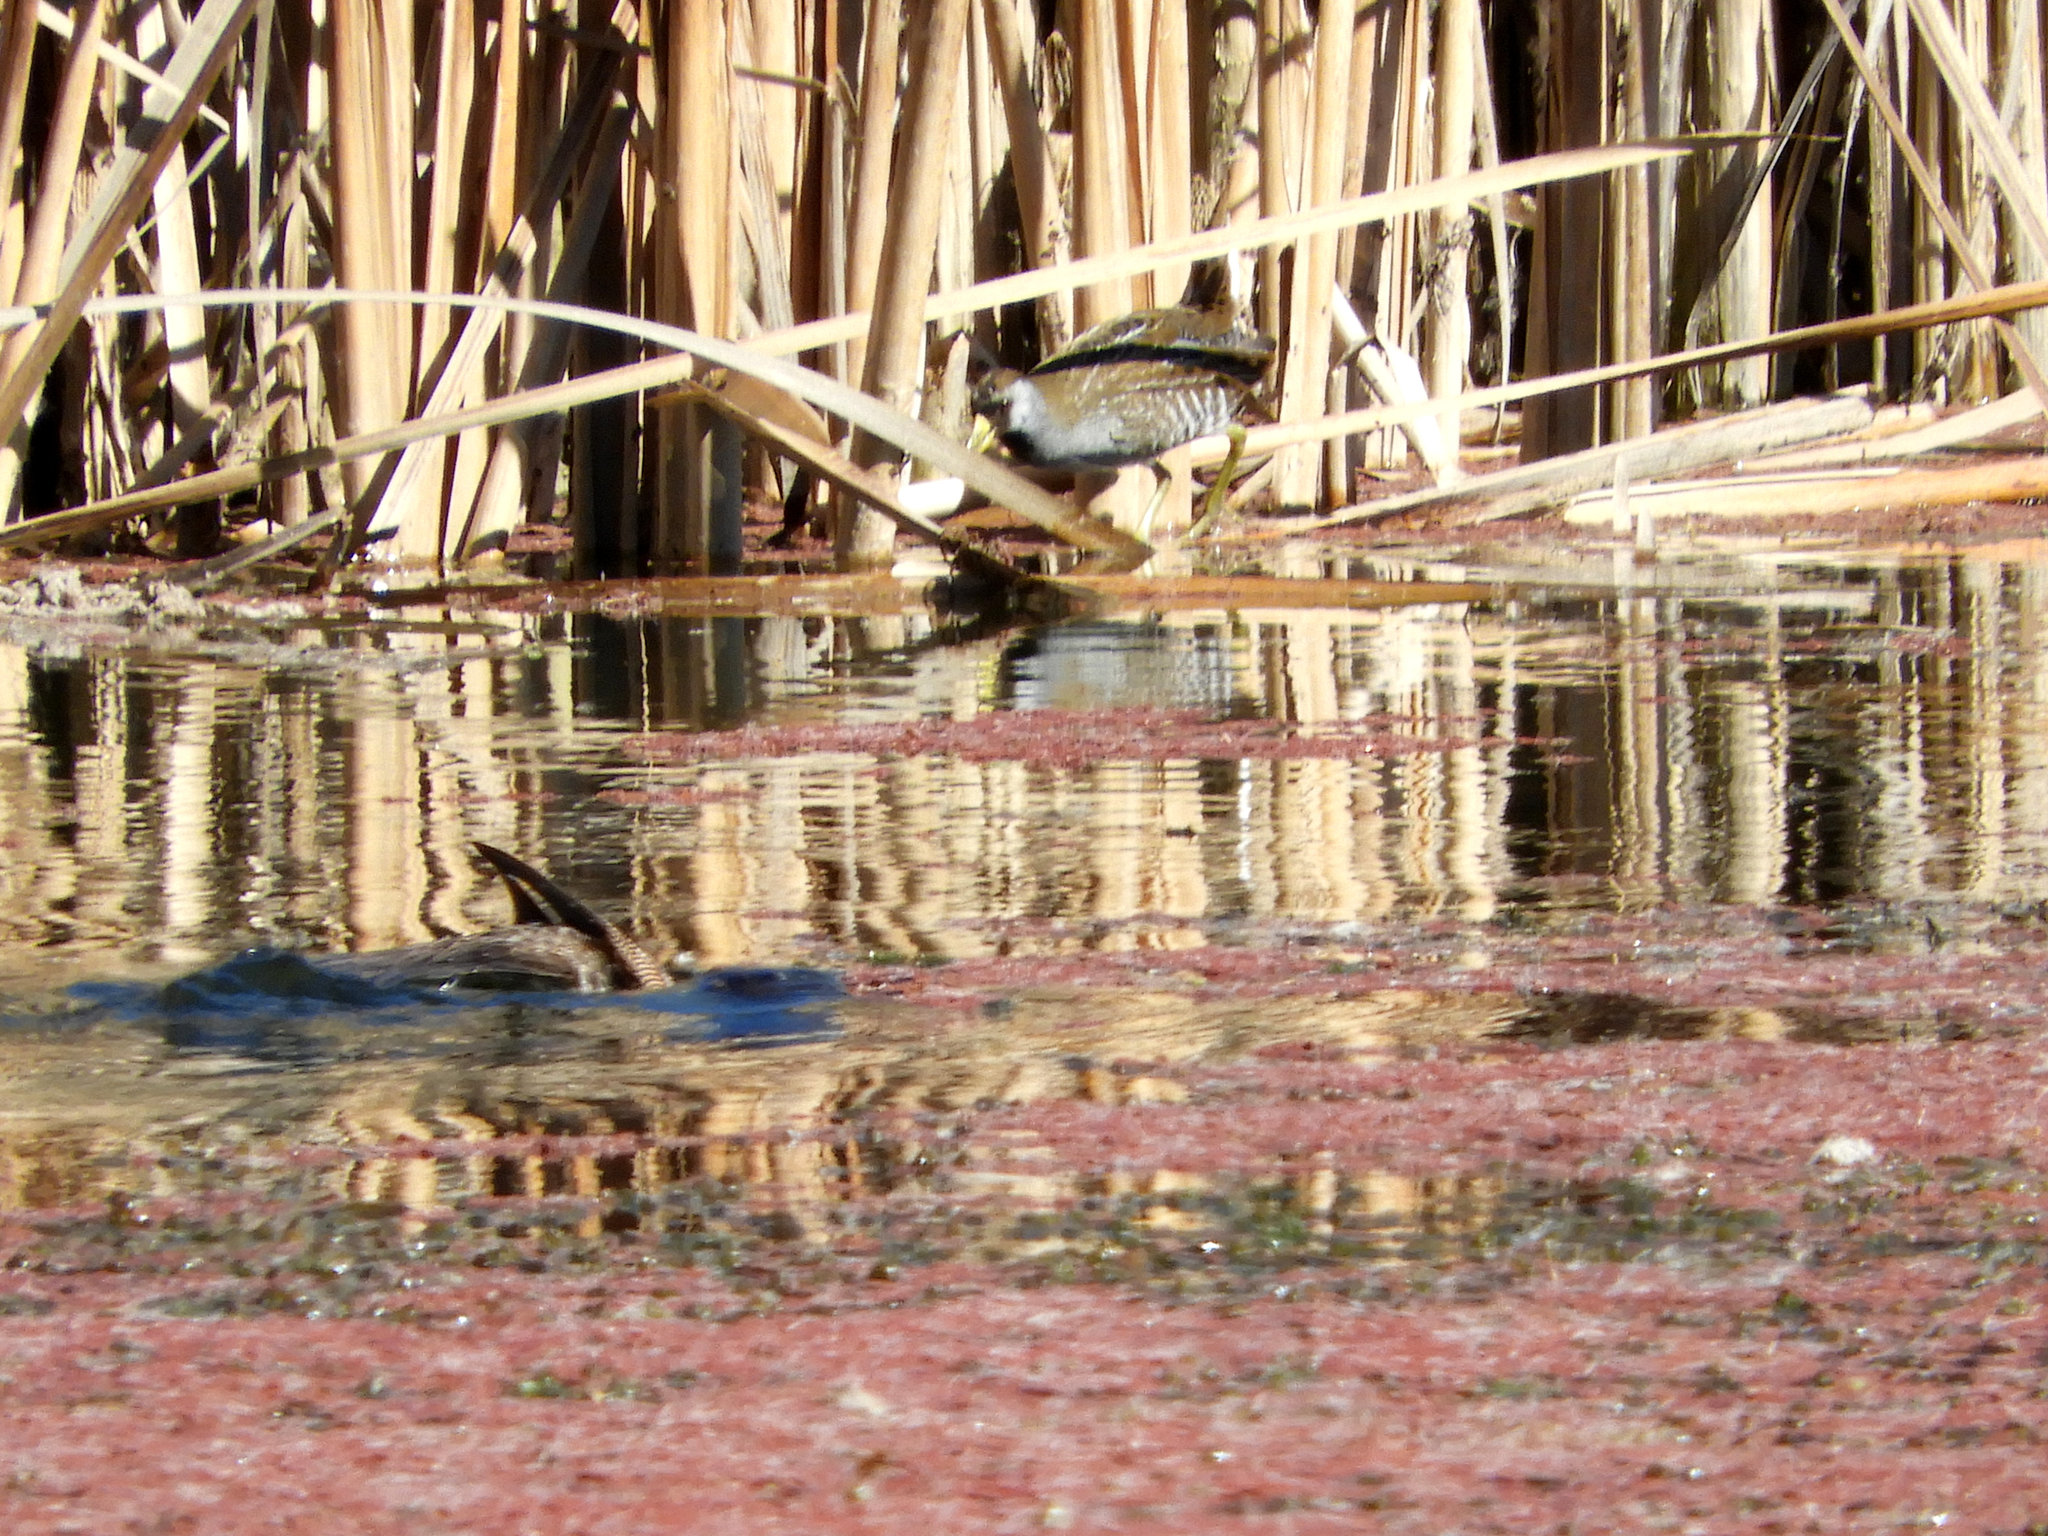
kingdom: Animalia
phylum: Chordata
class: Aves
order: Gruiformes
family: Rallidae
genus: Porzana
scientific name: Porzana carolina
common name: Sora
